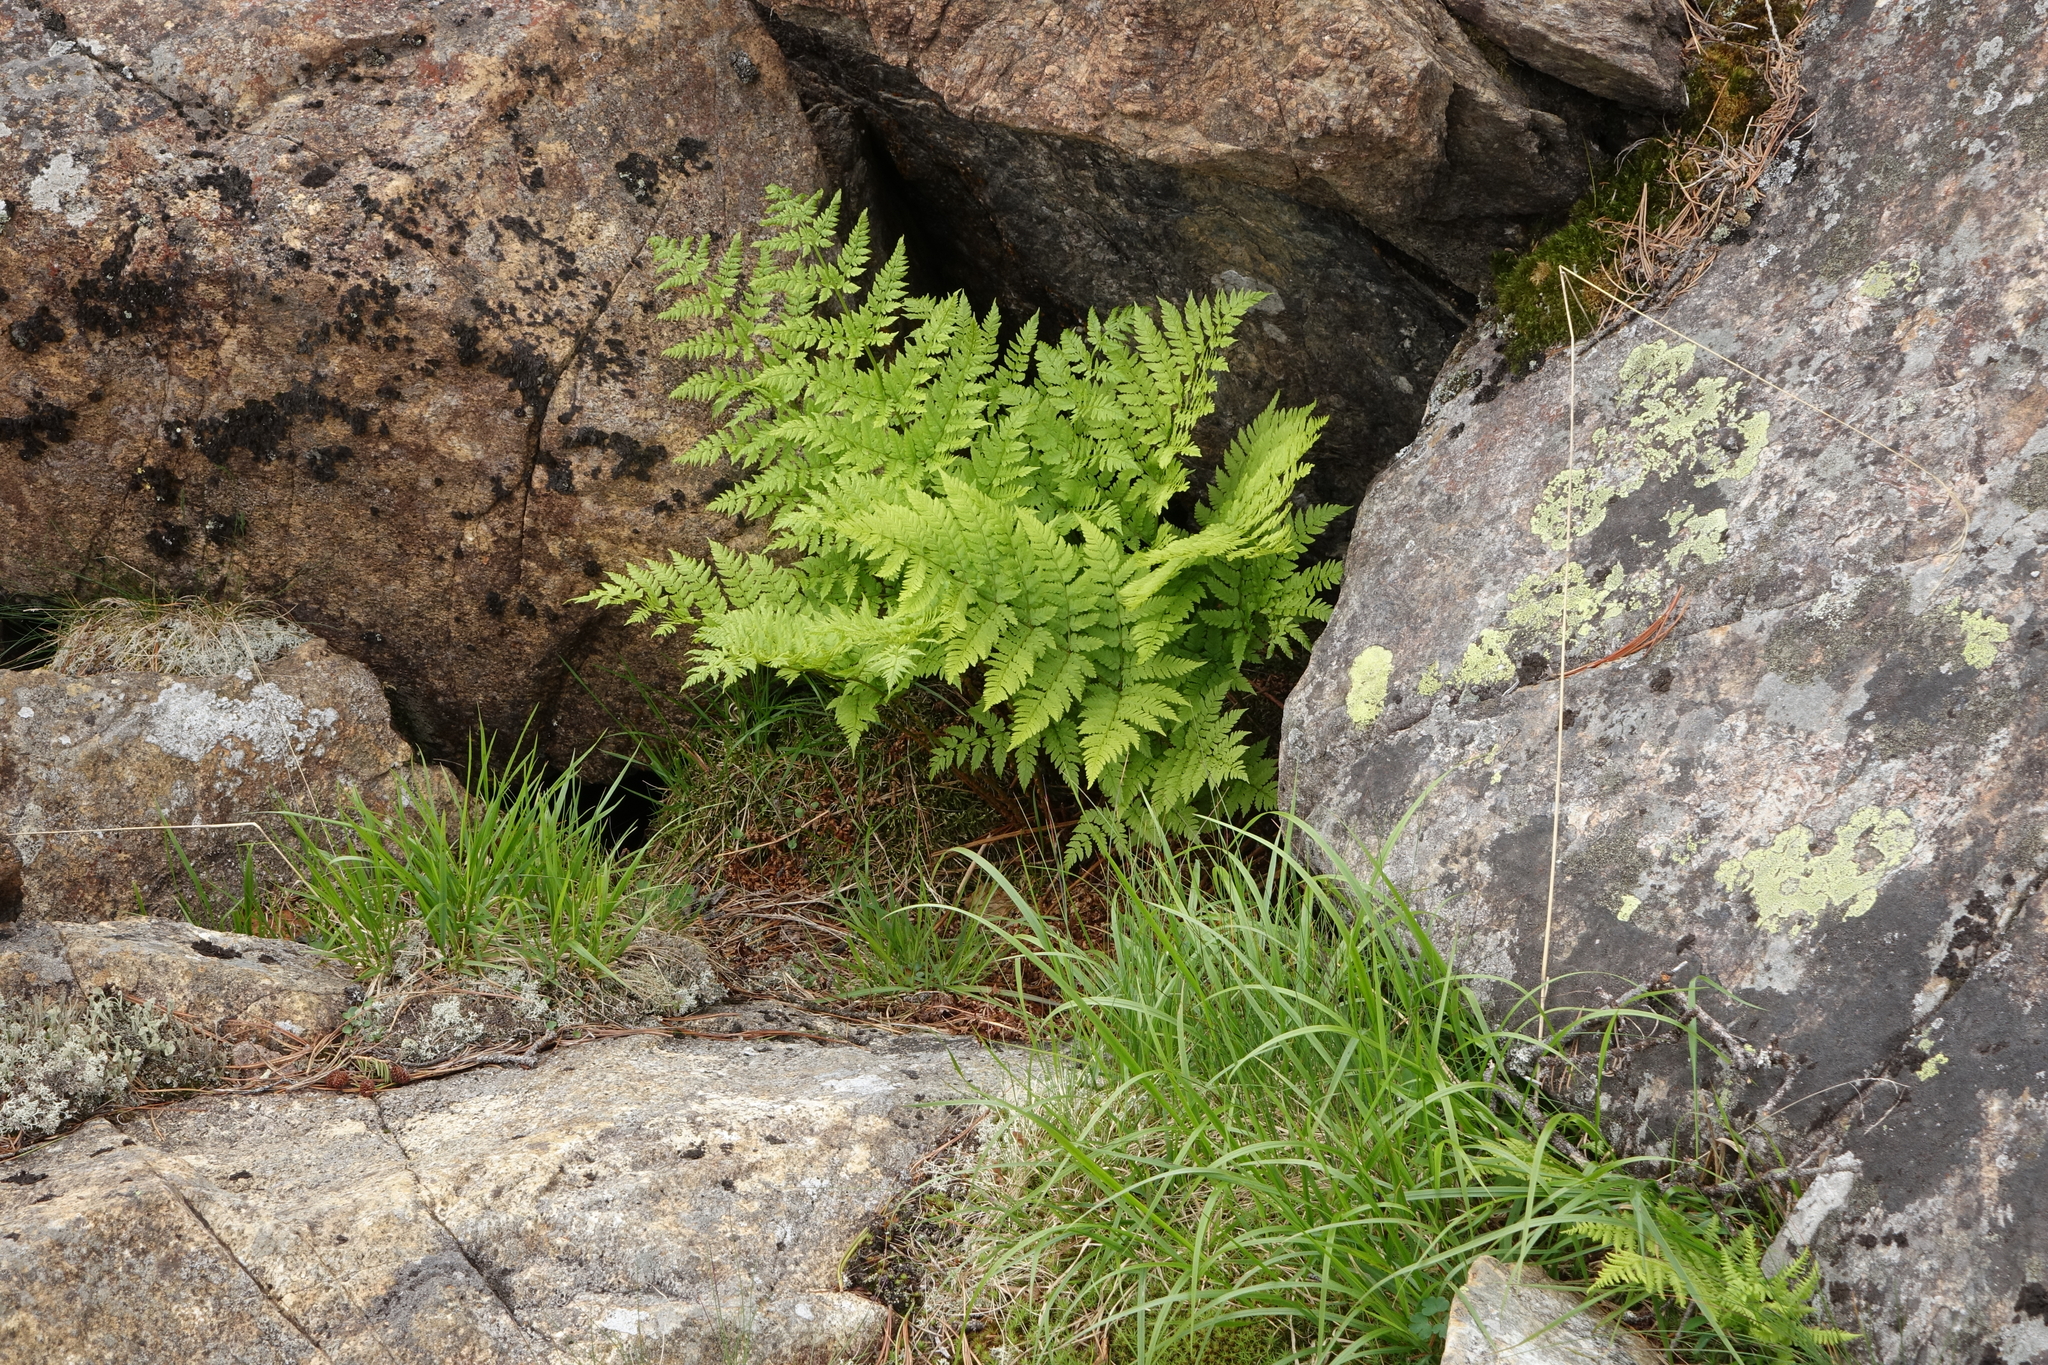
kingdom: Plantae
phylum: Tracheophyta
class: Polypodiopsida
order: Polypodiales
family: Dryopteridaceae
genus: Dryopteris
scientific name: Dryopteris expansa
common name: Northern buckler fern
